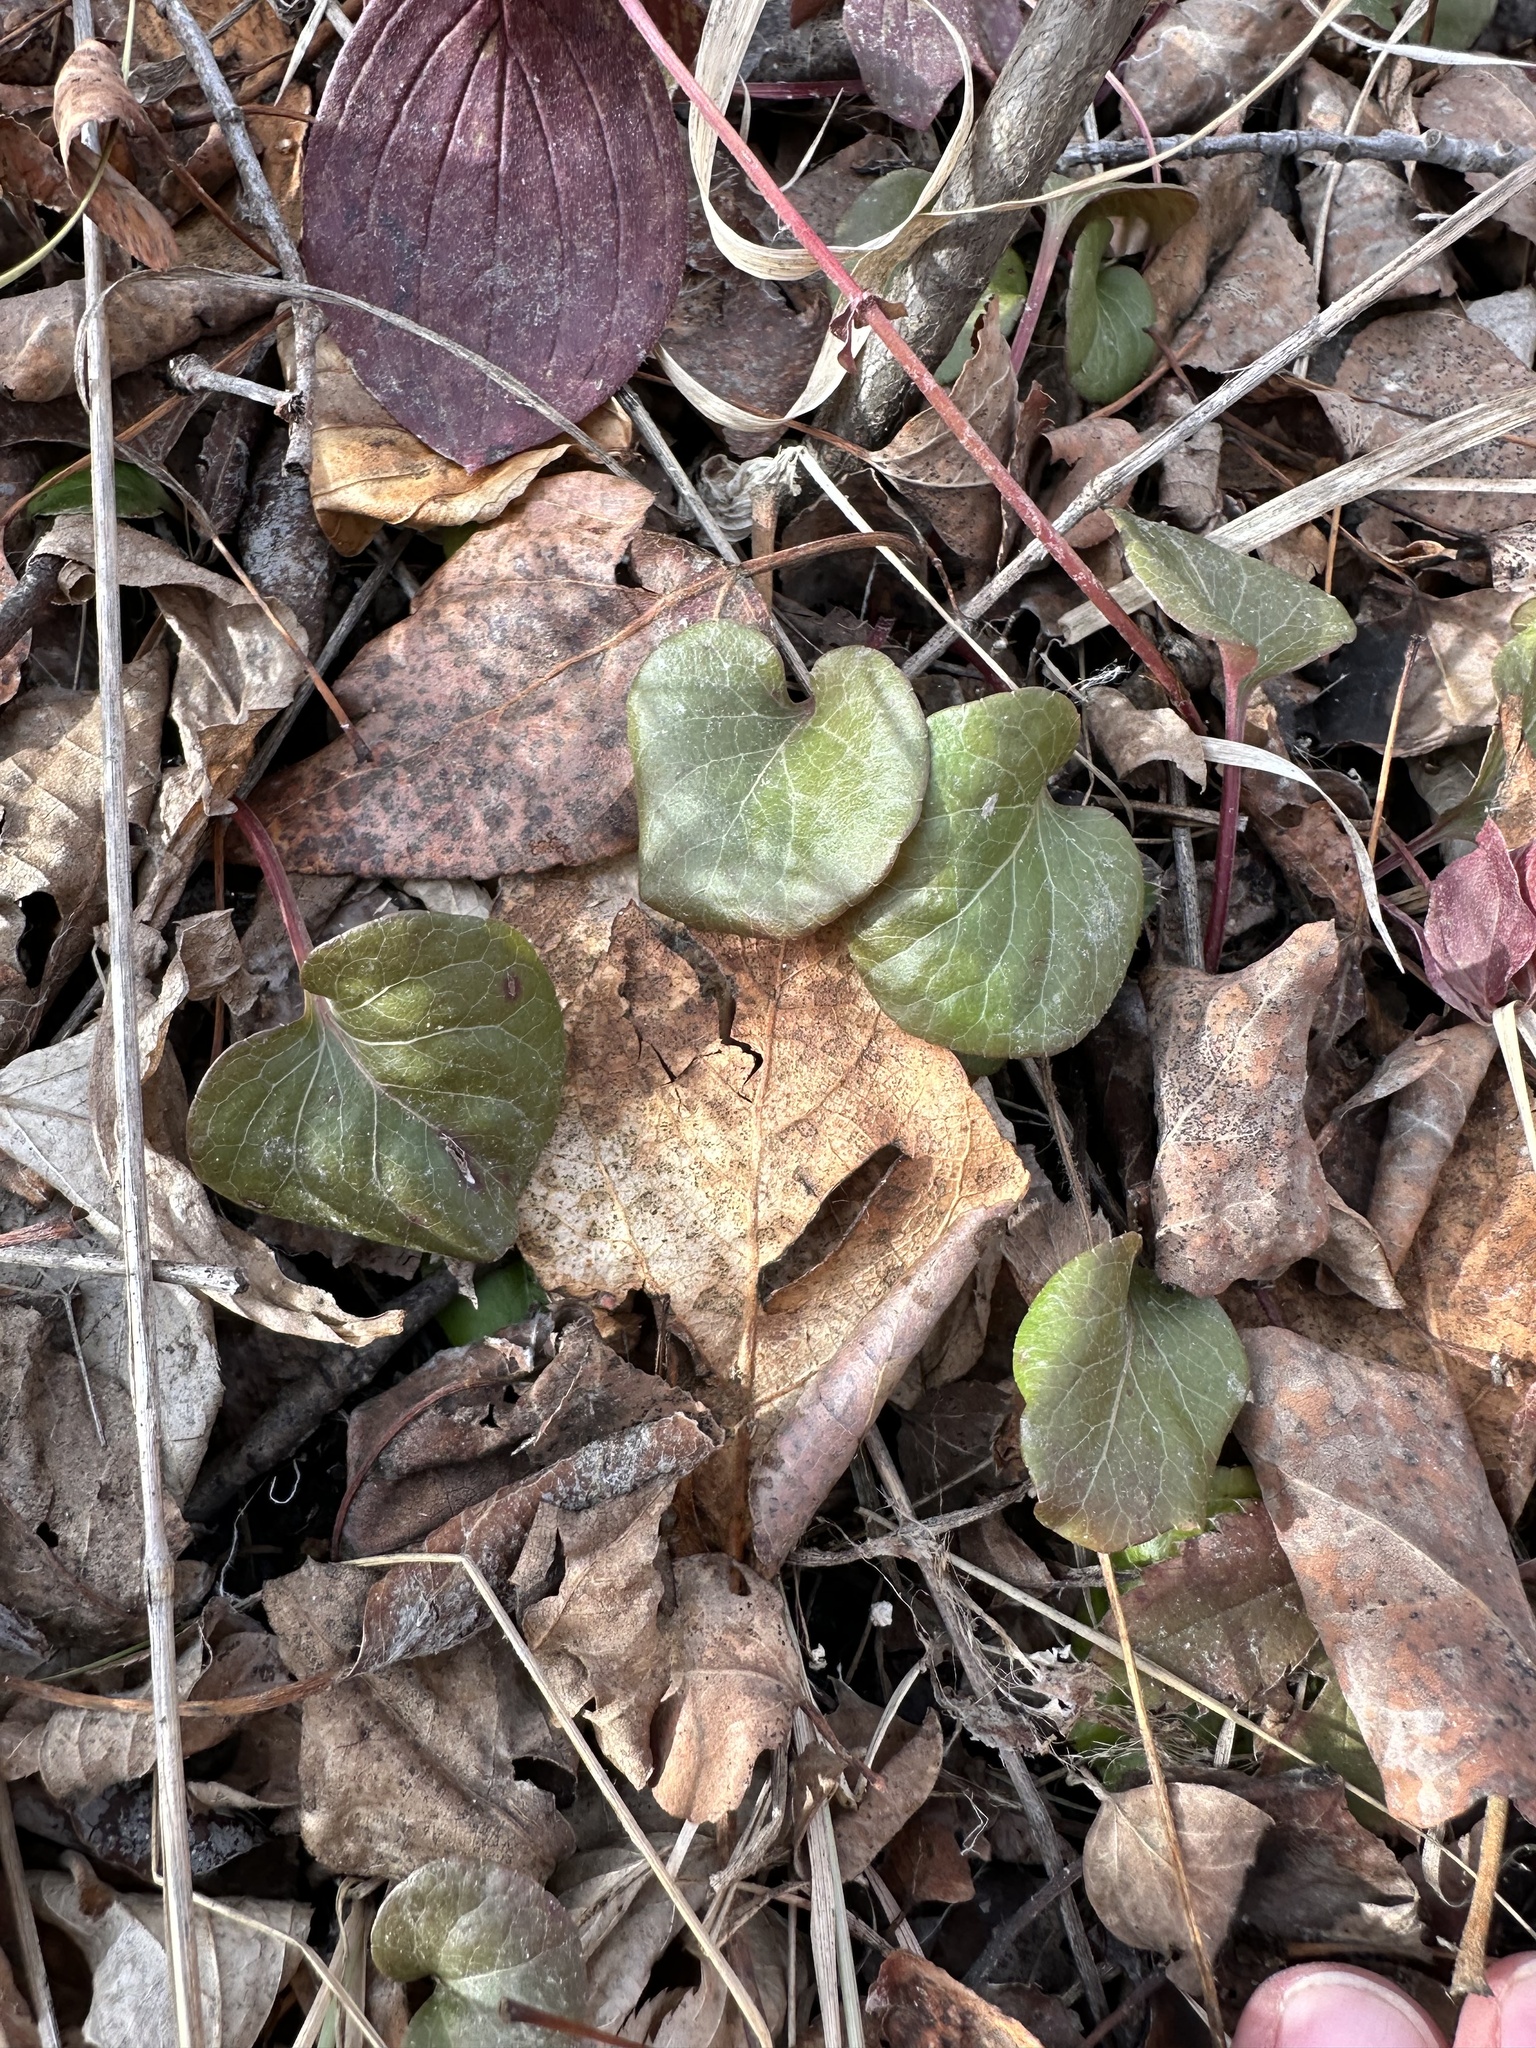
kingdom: Plantae
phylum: Tracheophyta
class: Magnoliopsida
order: Ericales
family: Ericaceae
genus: Pyrola
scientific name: Pyrola asarifolia
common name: Bog wintergreen
